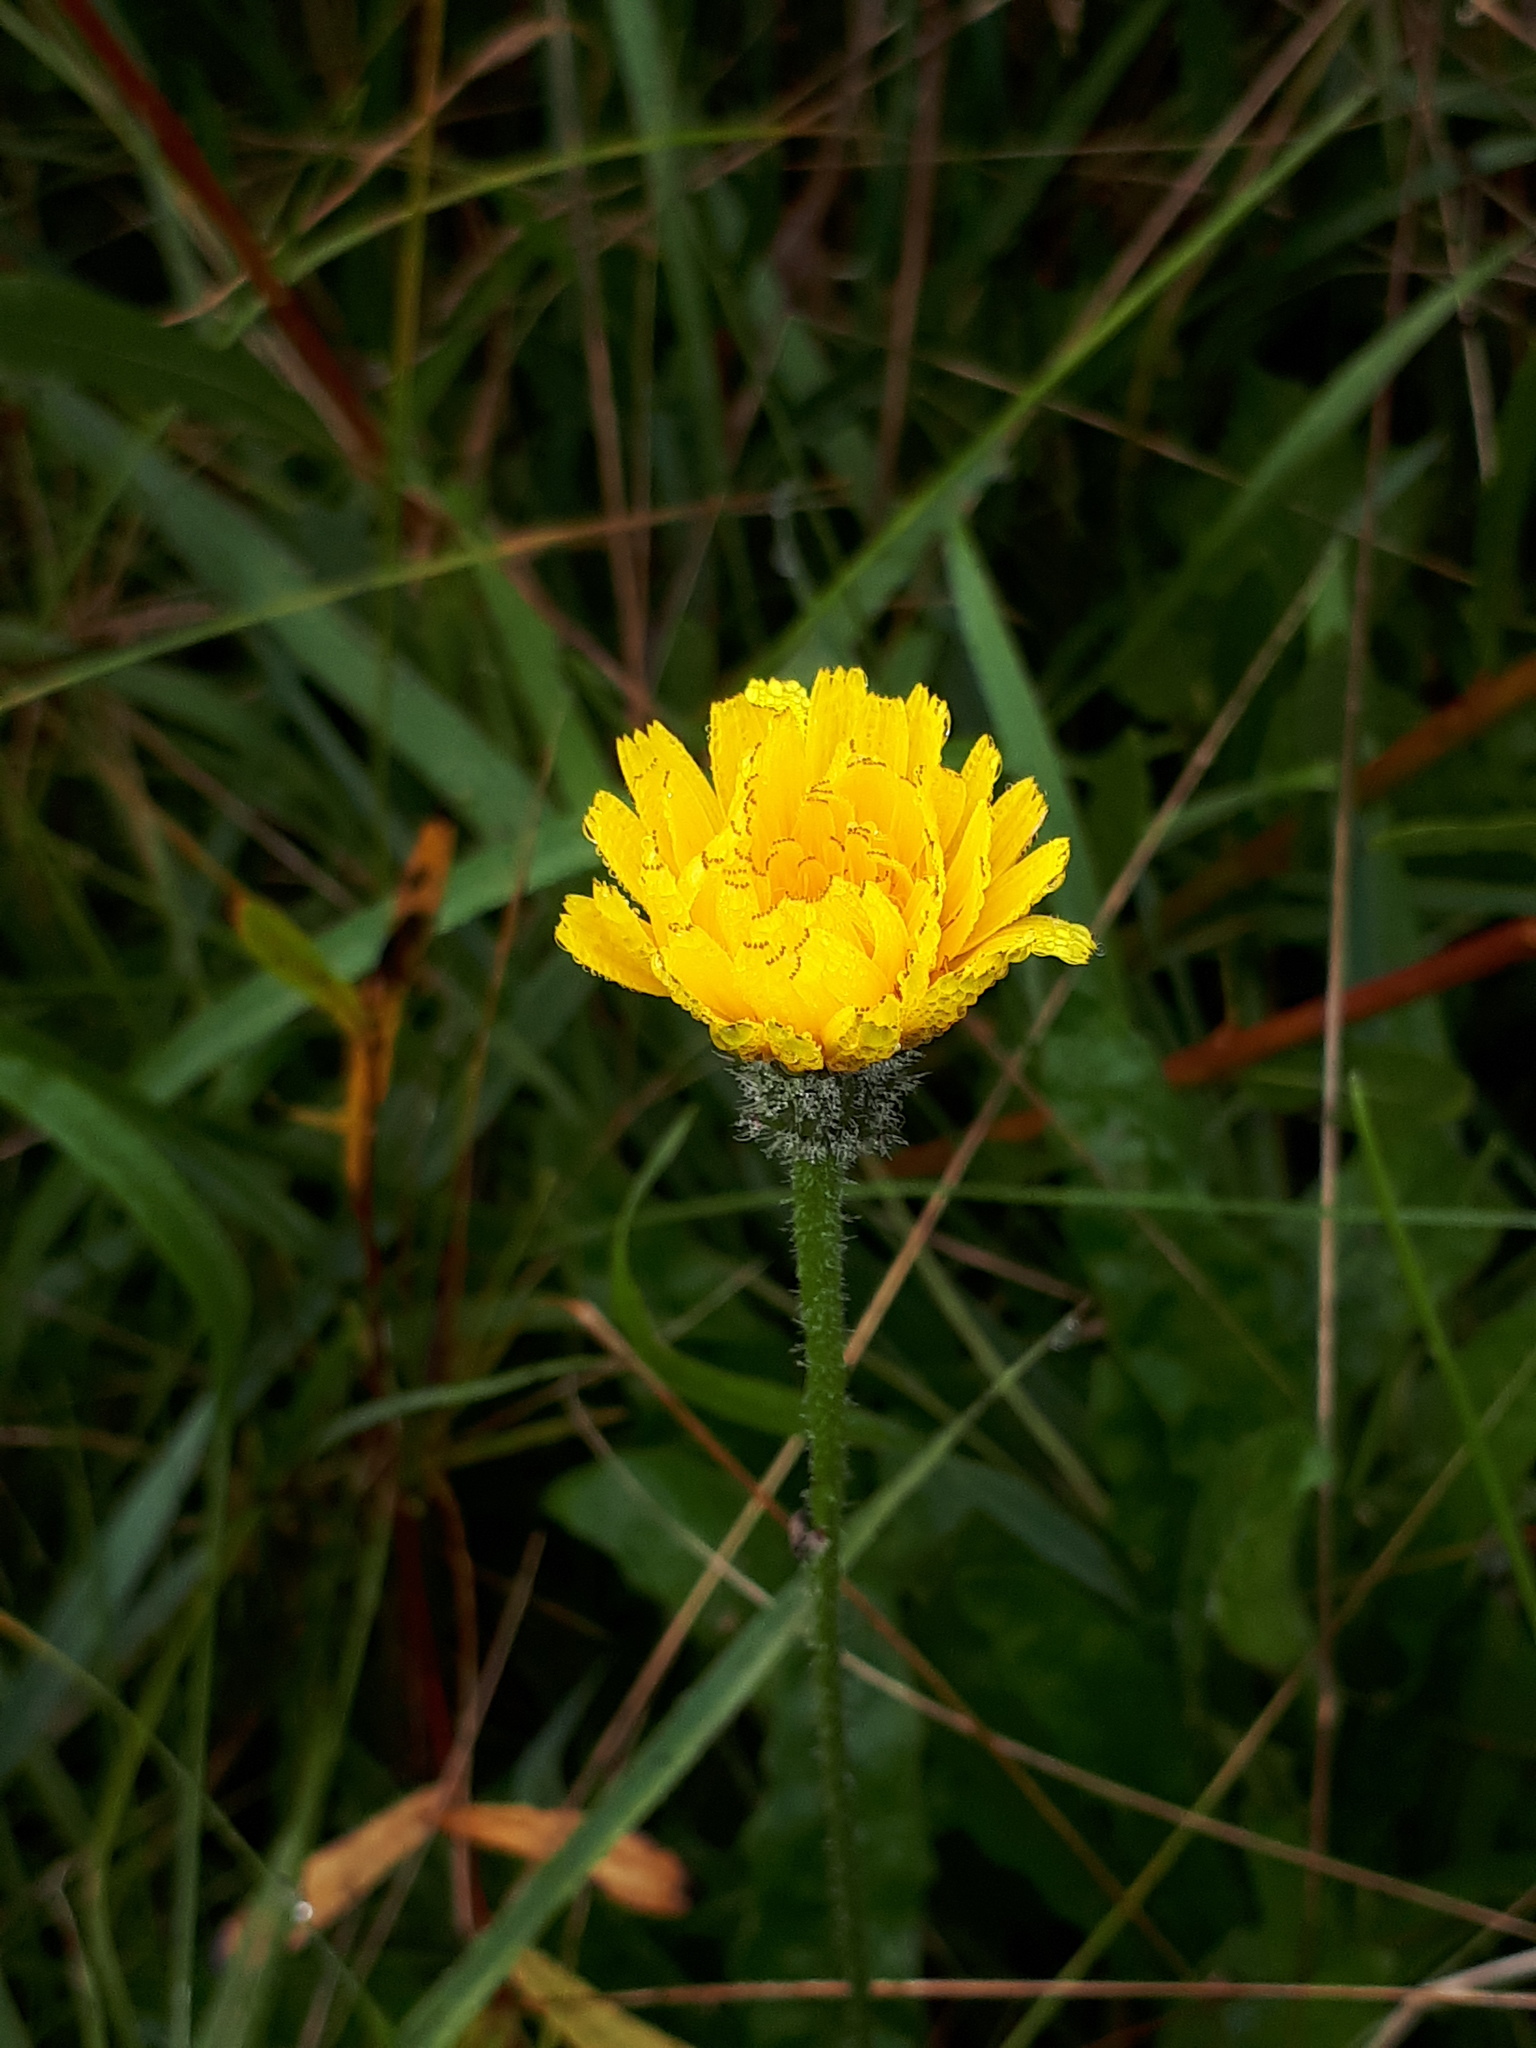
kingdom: Plantae
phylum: Tracheophyta
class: Magnoliopsida
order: Asterales
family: Asteraceae
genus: Leontodon
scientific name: Leontodon hispidus
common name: Rough hawkbit
